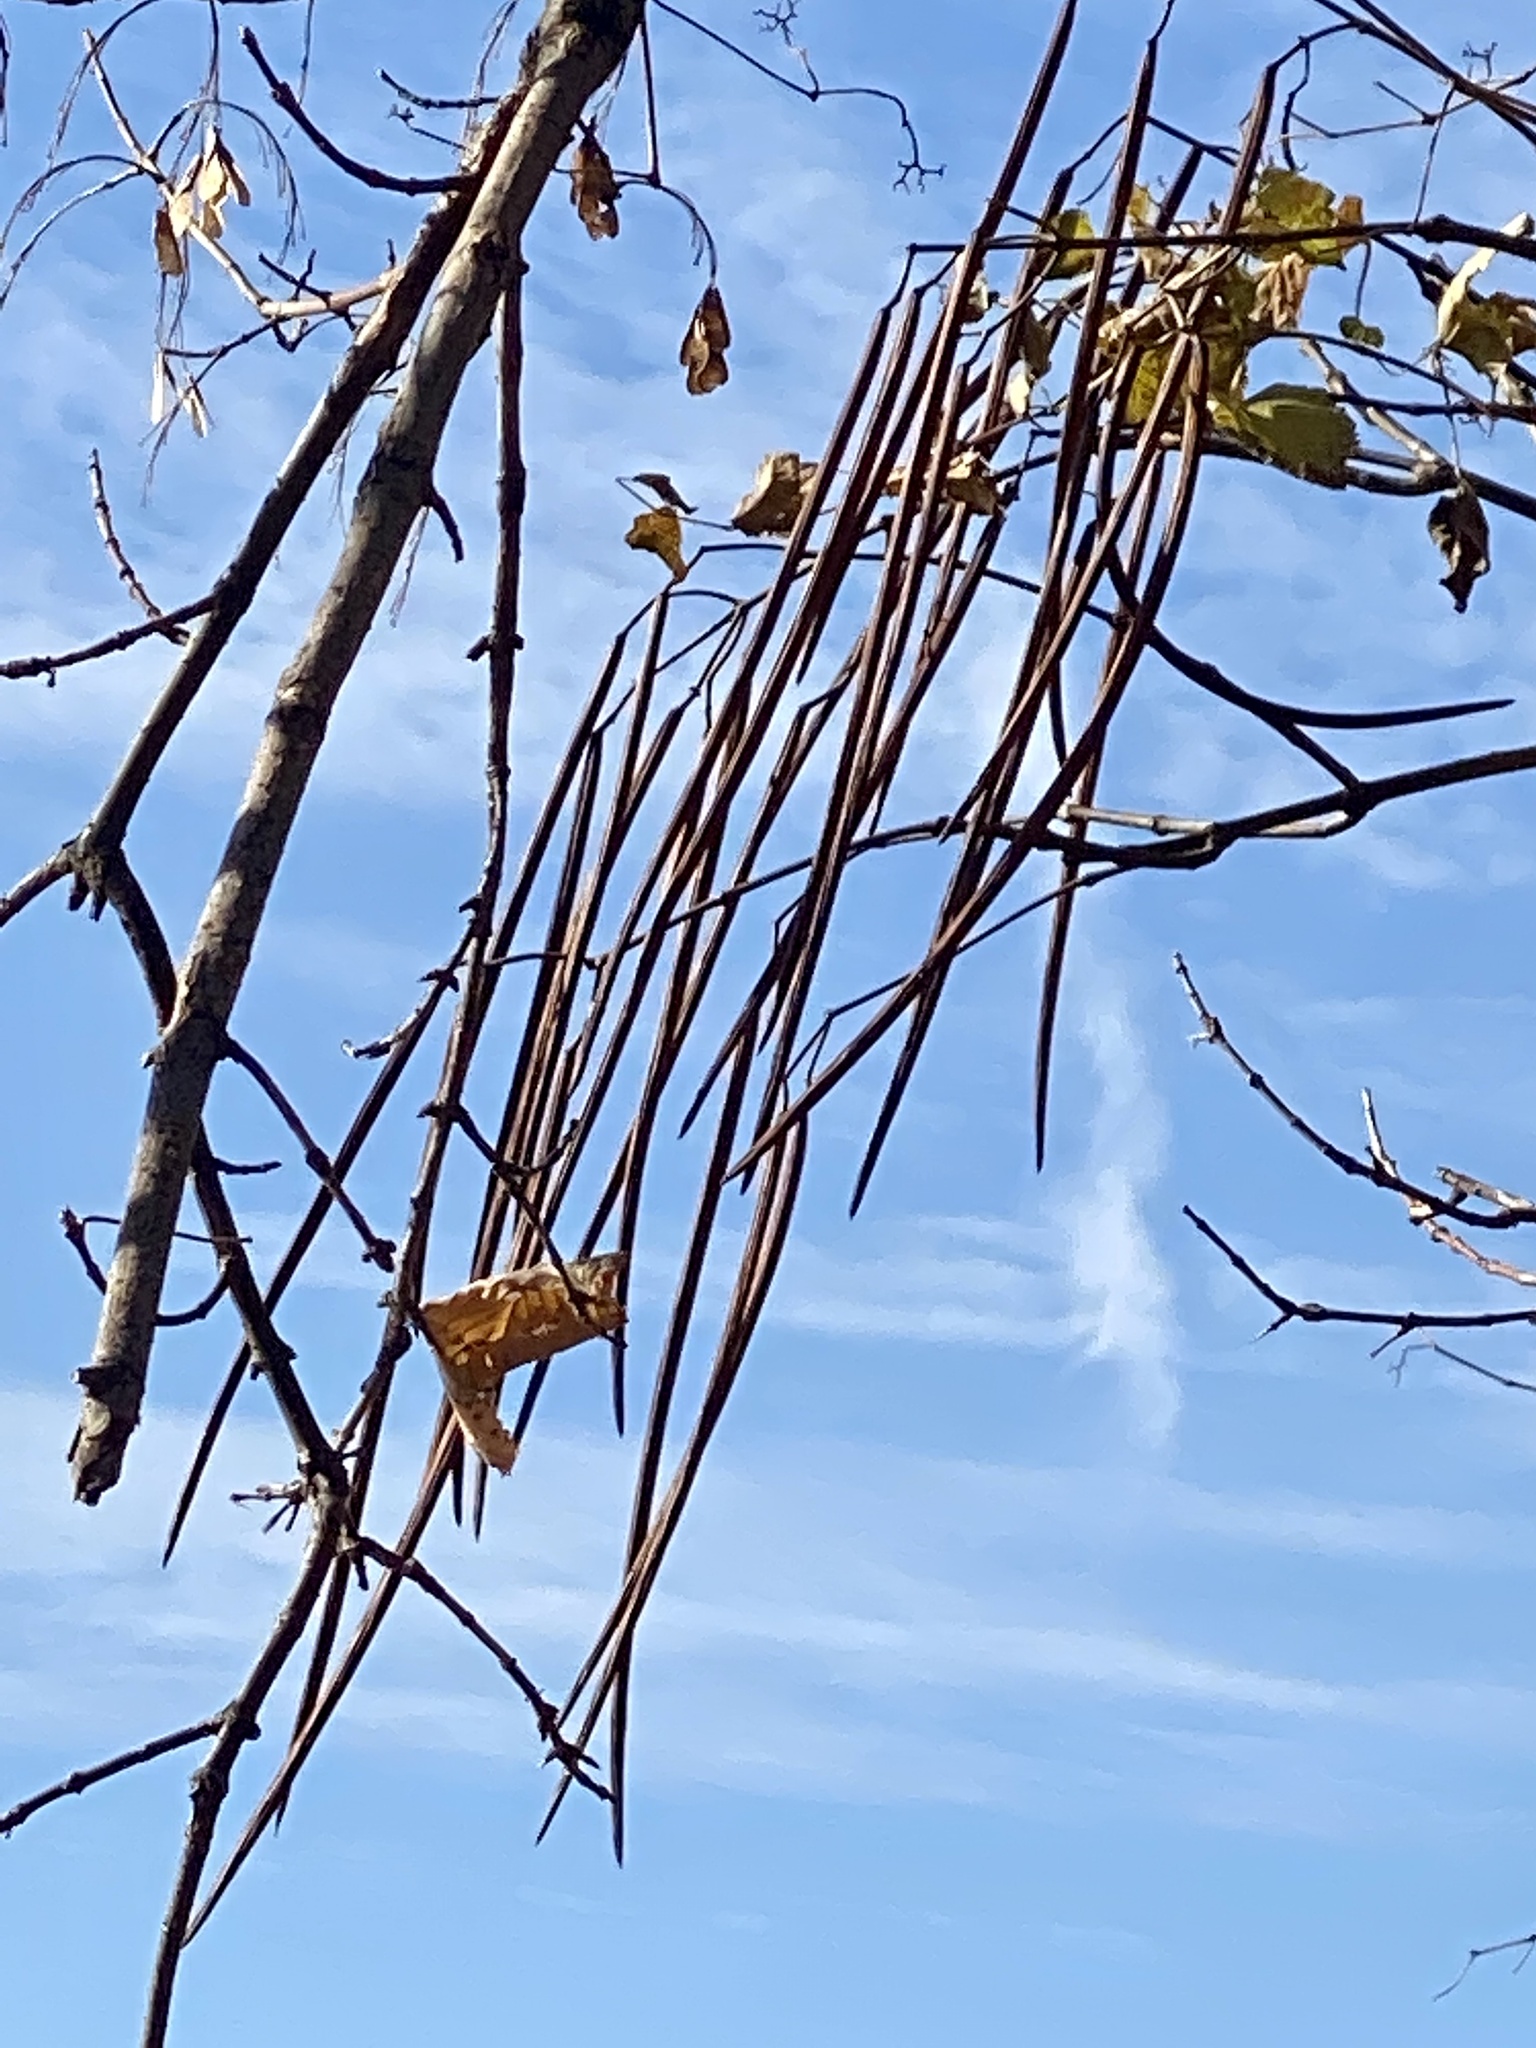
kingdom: Plantae
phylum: Tracheophyta
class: Magnoliopsida
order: Lamiales
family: Bignoniaceae
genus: Catalpa
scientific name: Catalpa
